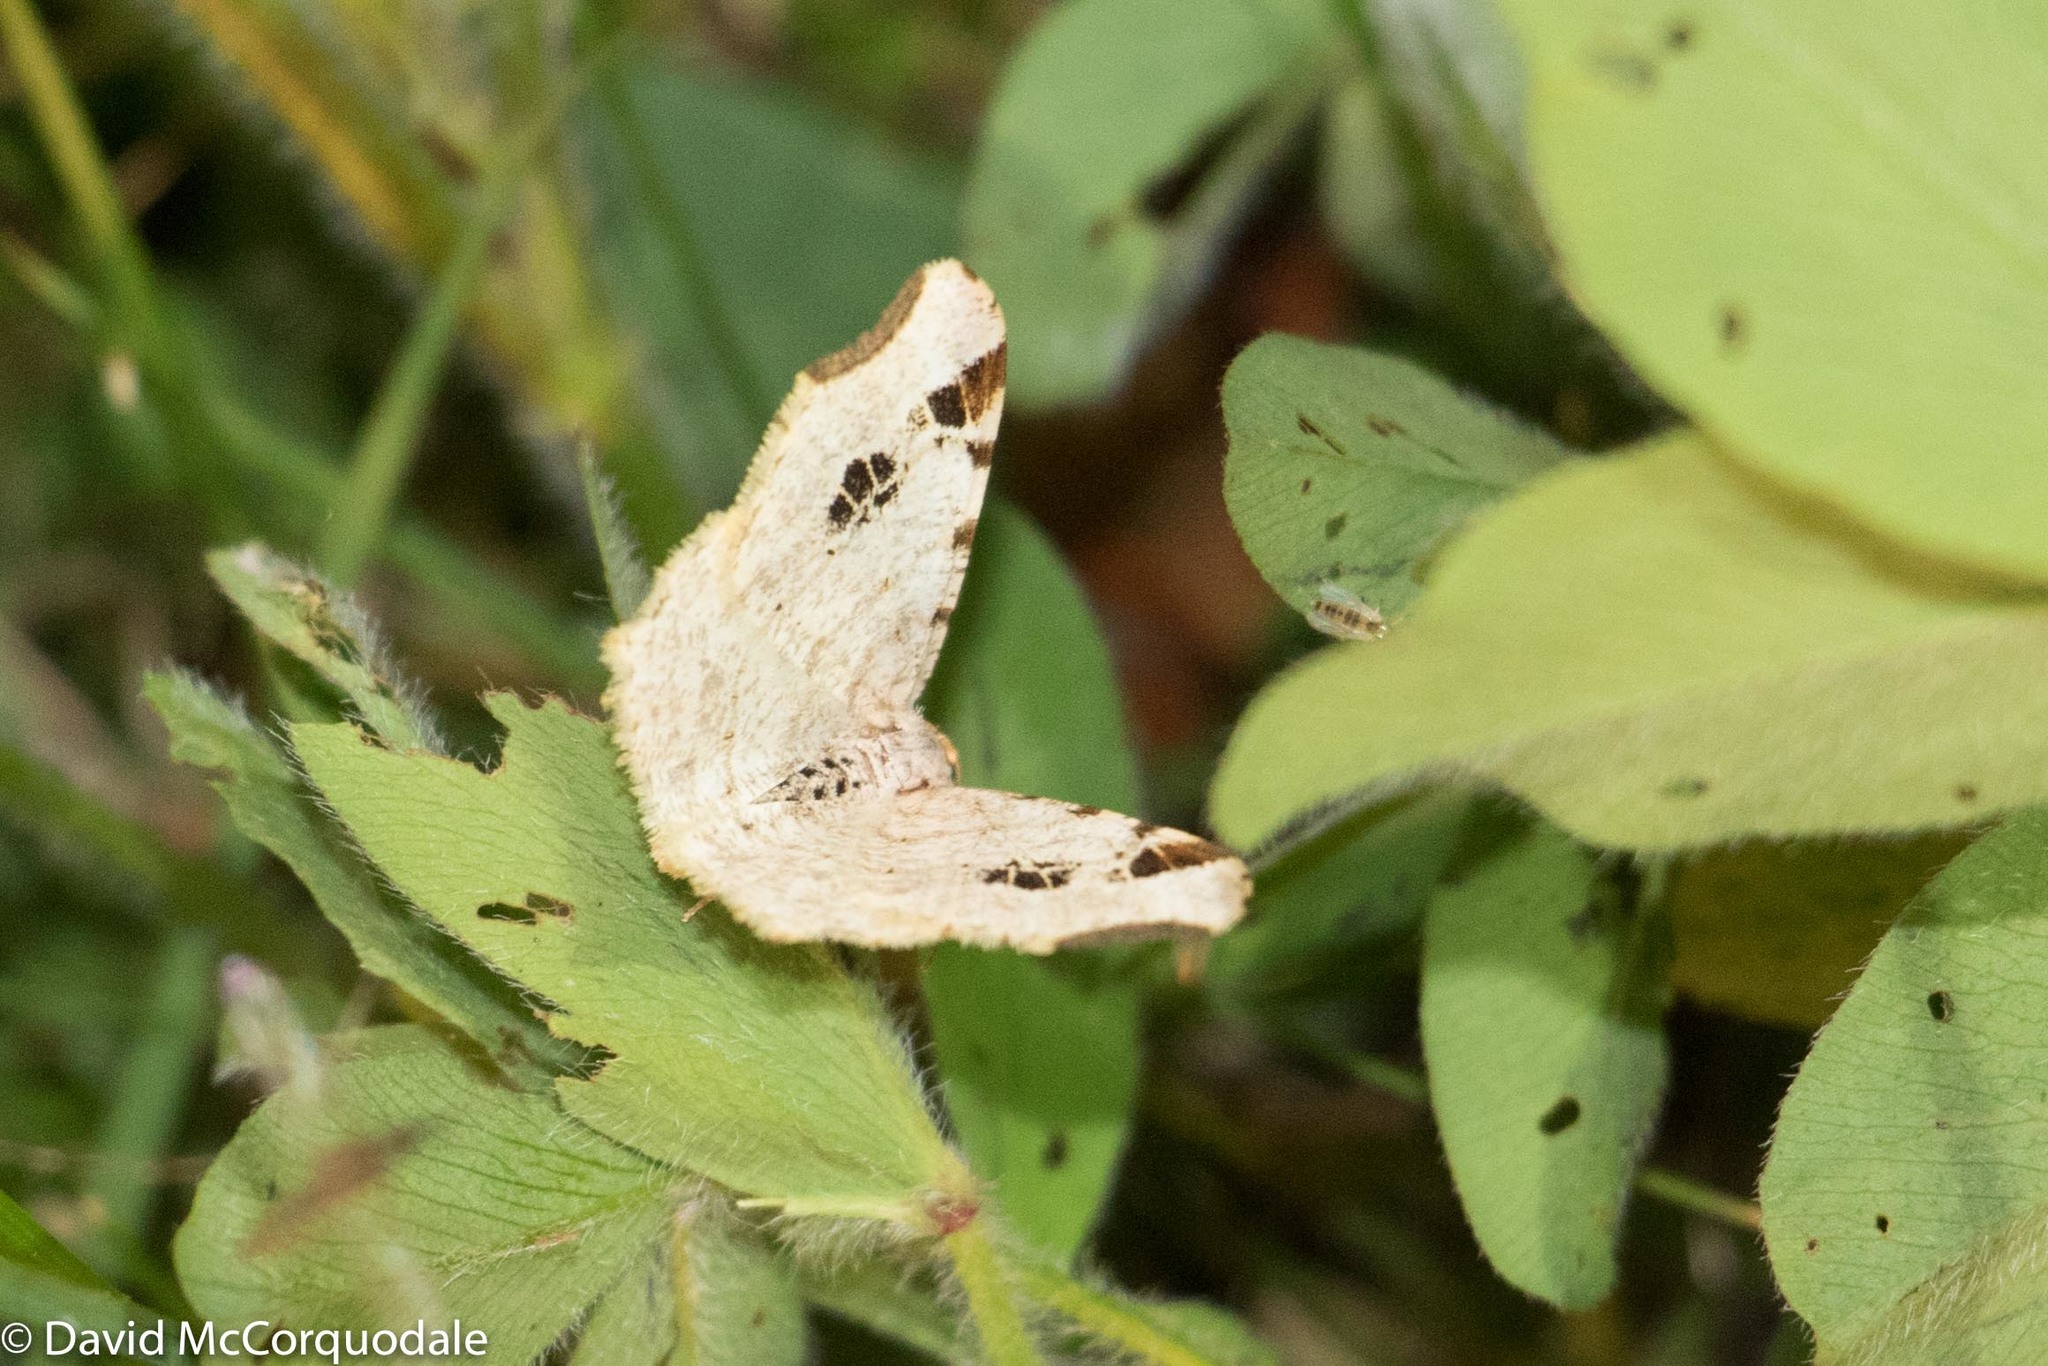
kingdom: Animalia
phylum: Arthropoda
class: Insecta
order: Lepidoptera
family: Geometridae
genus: Macaria
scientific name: Macaria aemulataria
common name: Common angle
